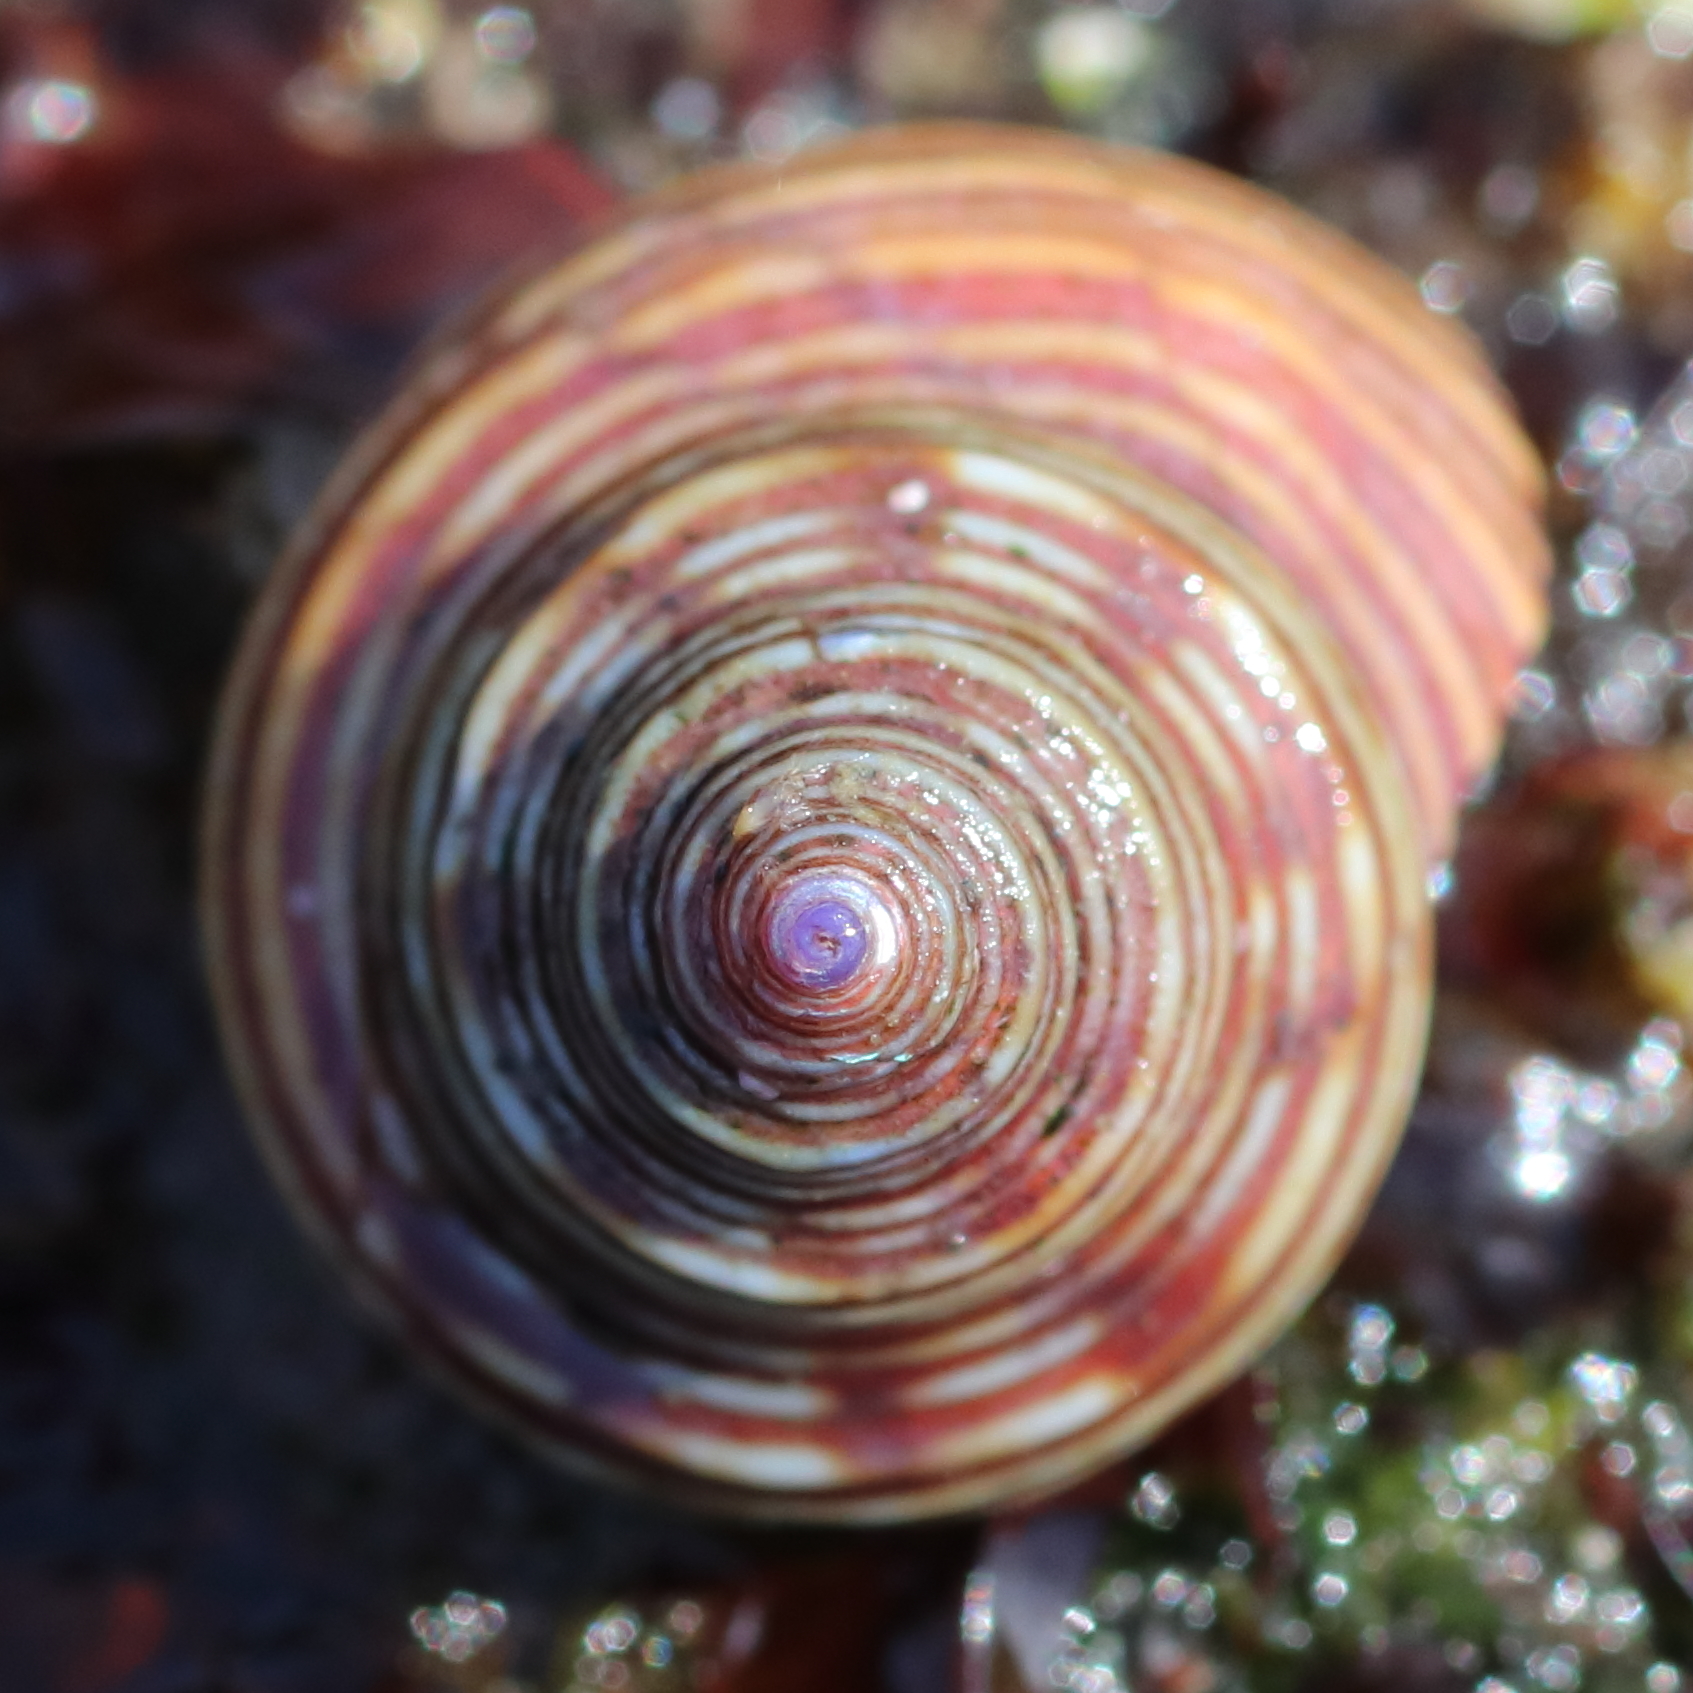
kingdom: Animalia
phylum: Mollusca
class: Gastropoda
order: Trochida
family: Calliostomatidae
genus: Calliostoma
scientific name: Calliostoma ligatum
